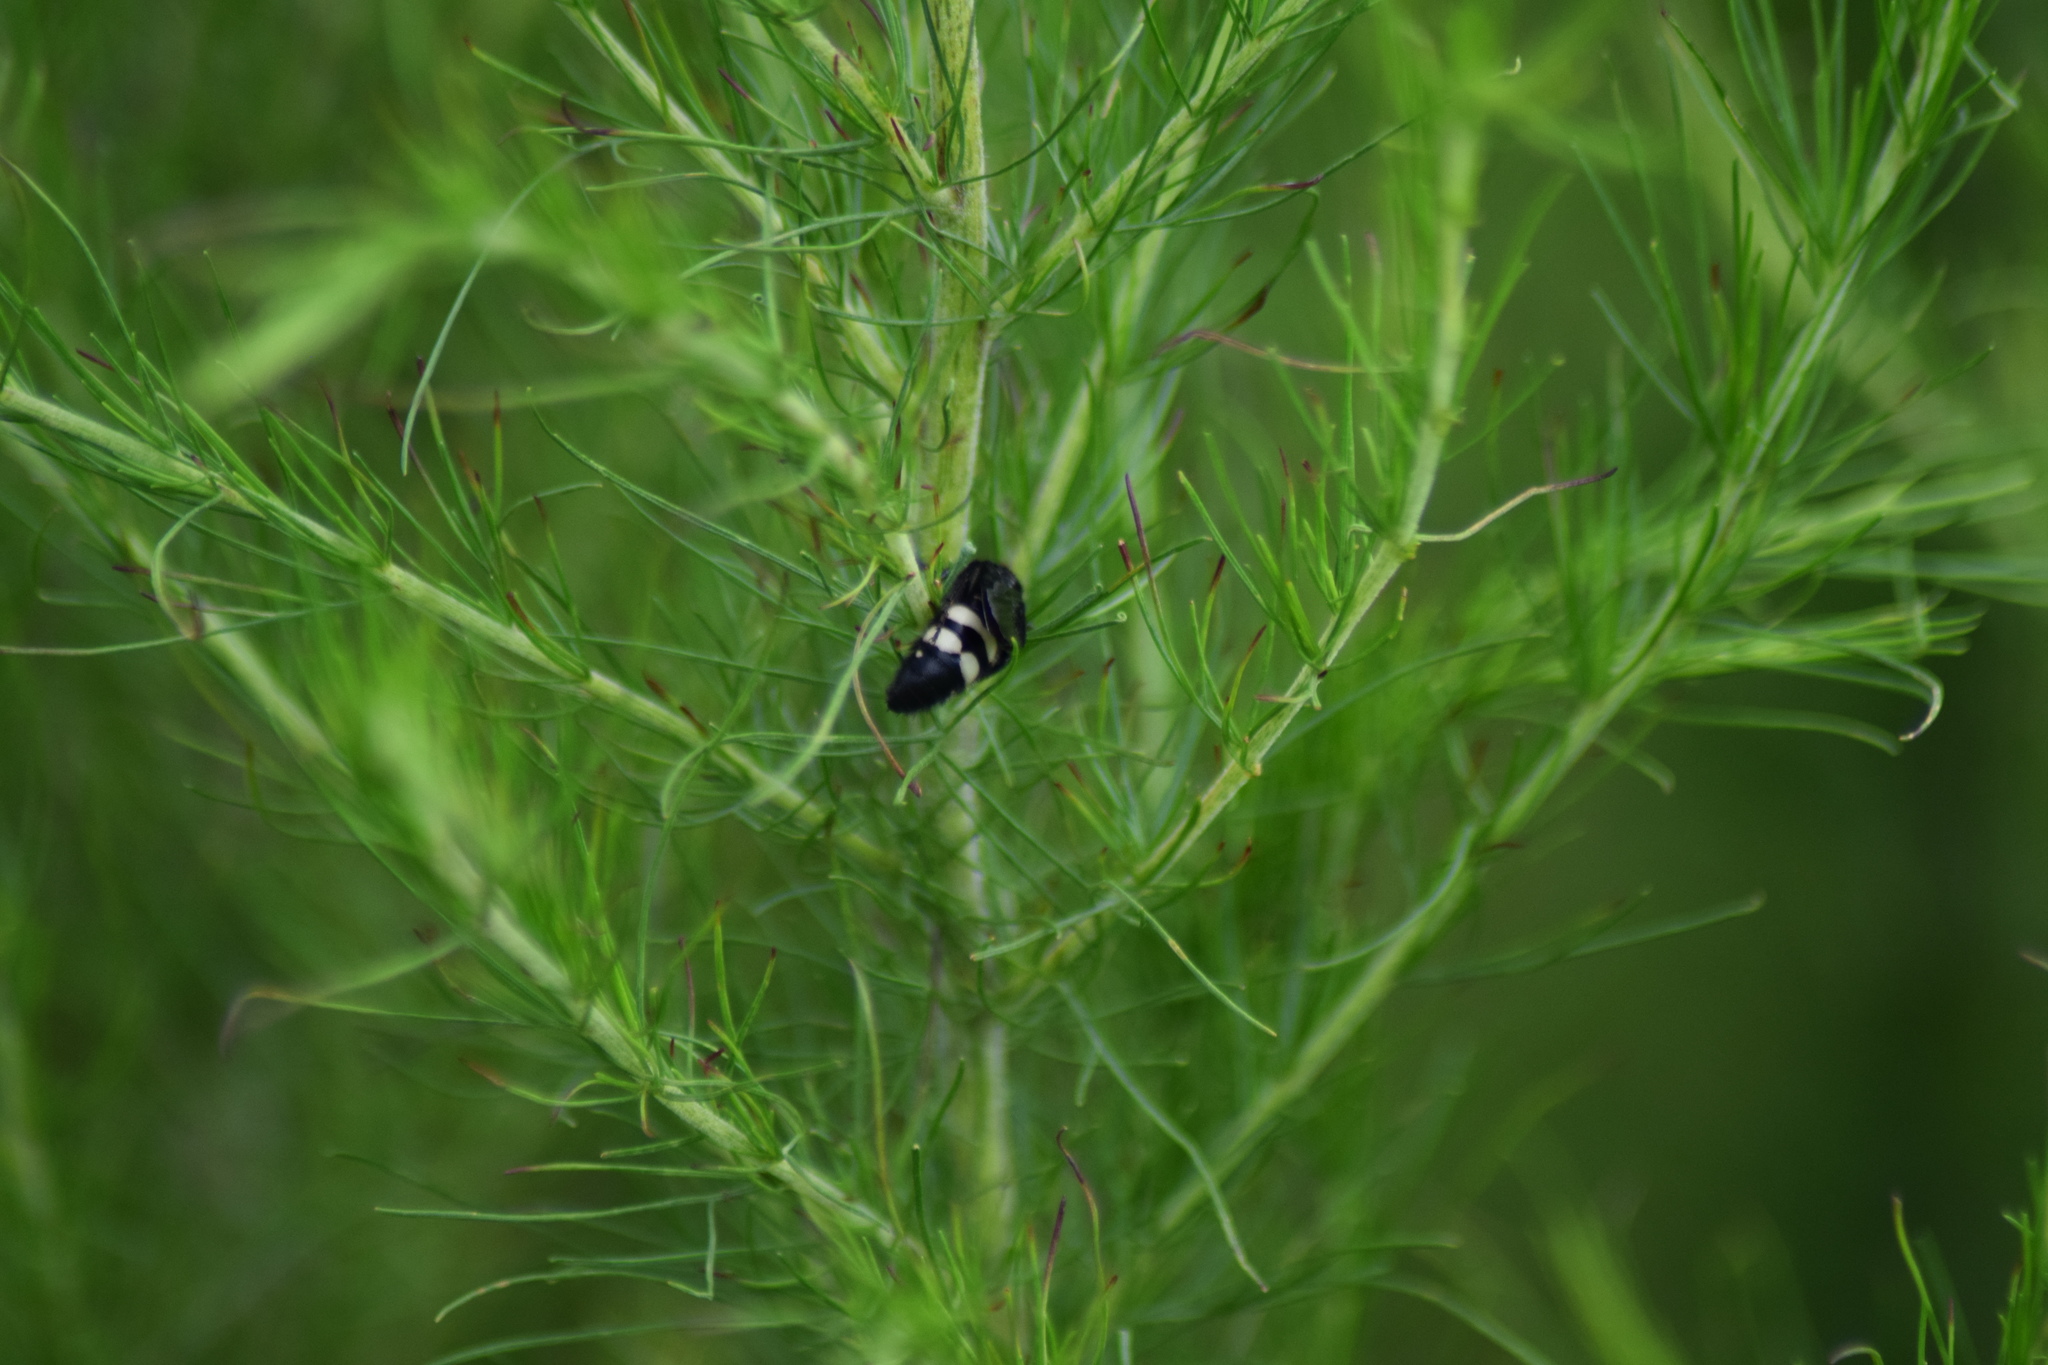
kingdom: Animalia
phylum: Arthropoda
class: Insecta
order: Hymenoptera
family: Scoliidae
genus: Scolia
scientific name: Scolia bicincta
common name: Double-banded scoliid wasp
